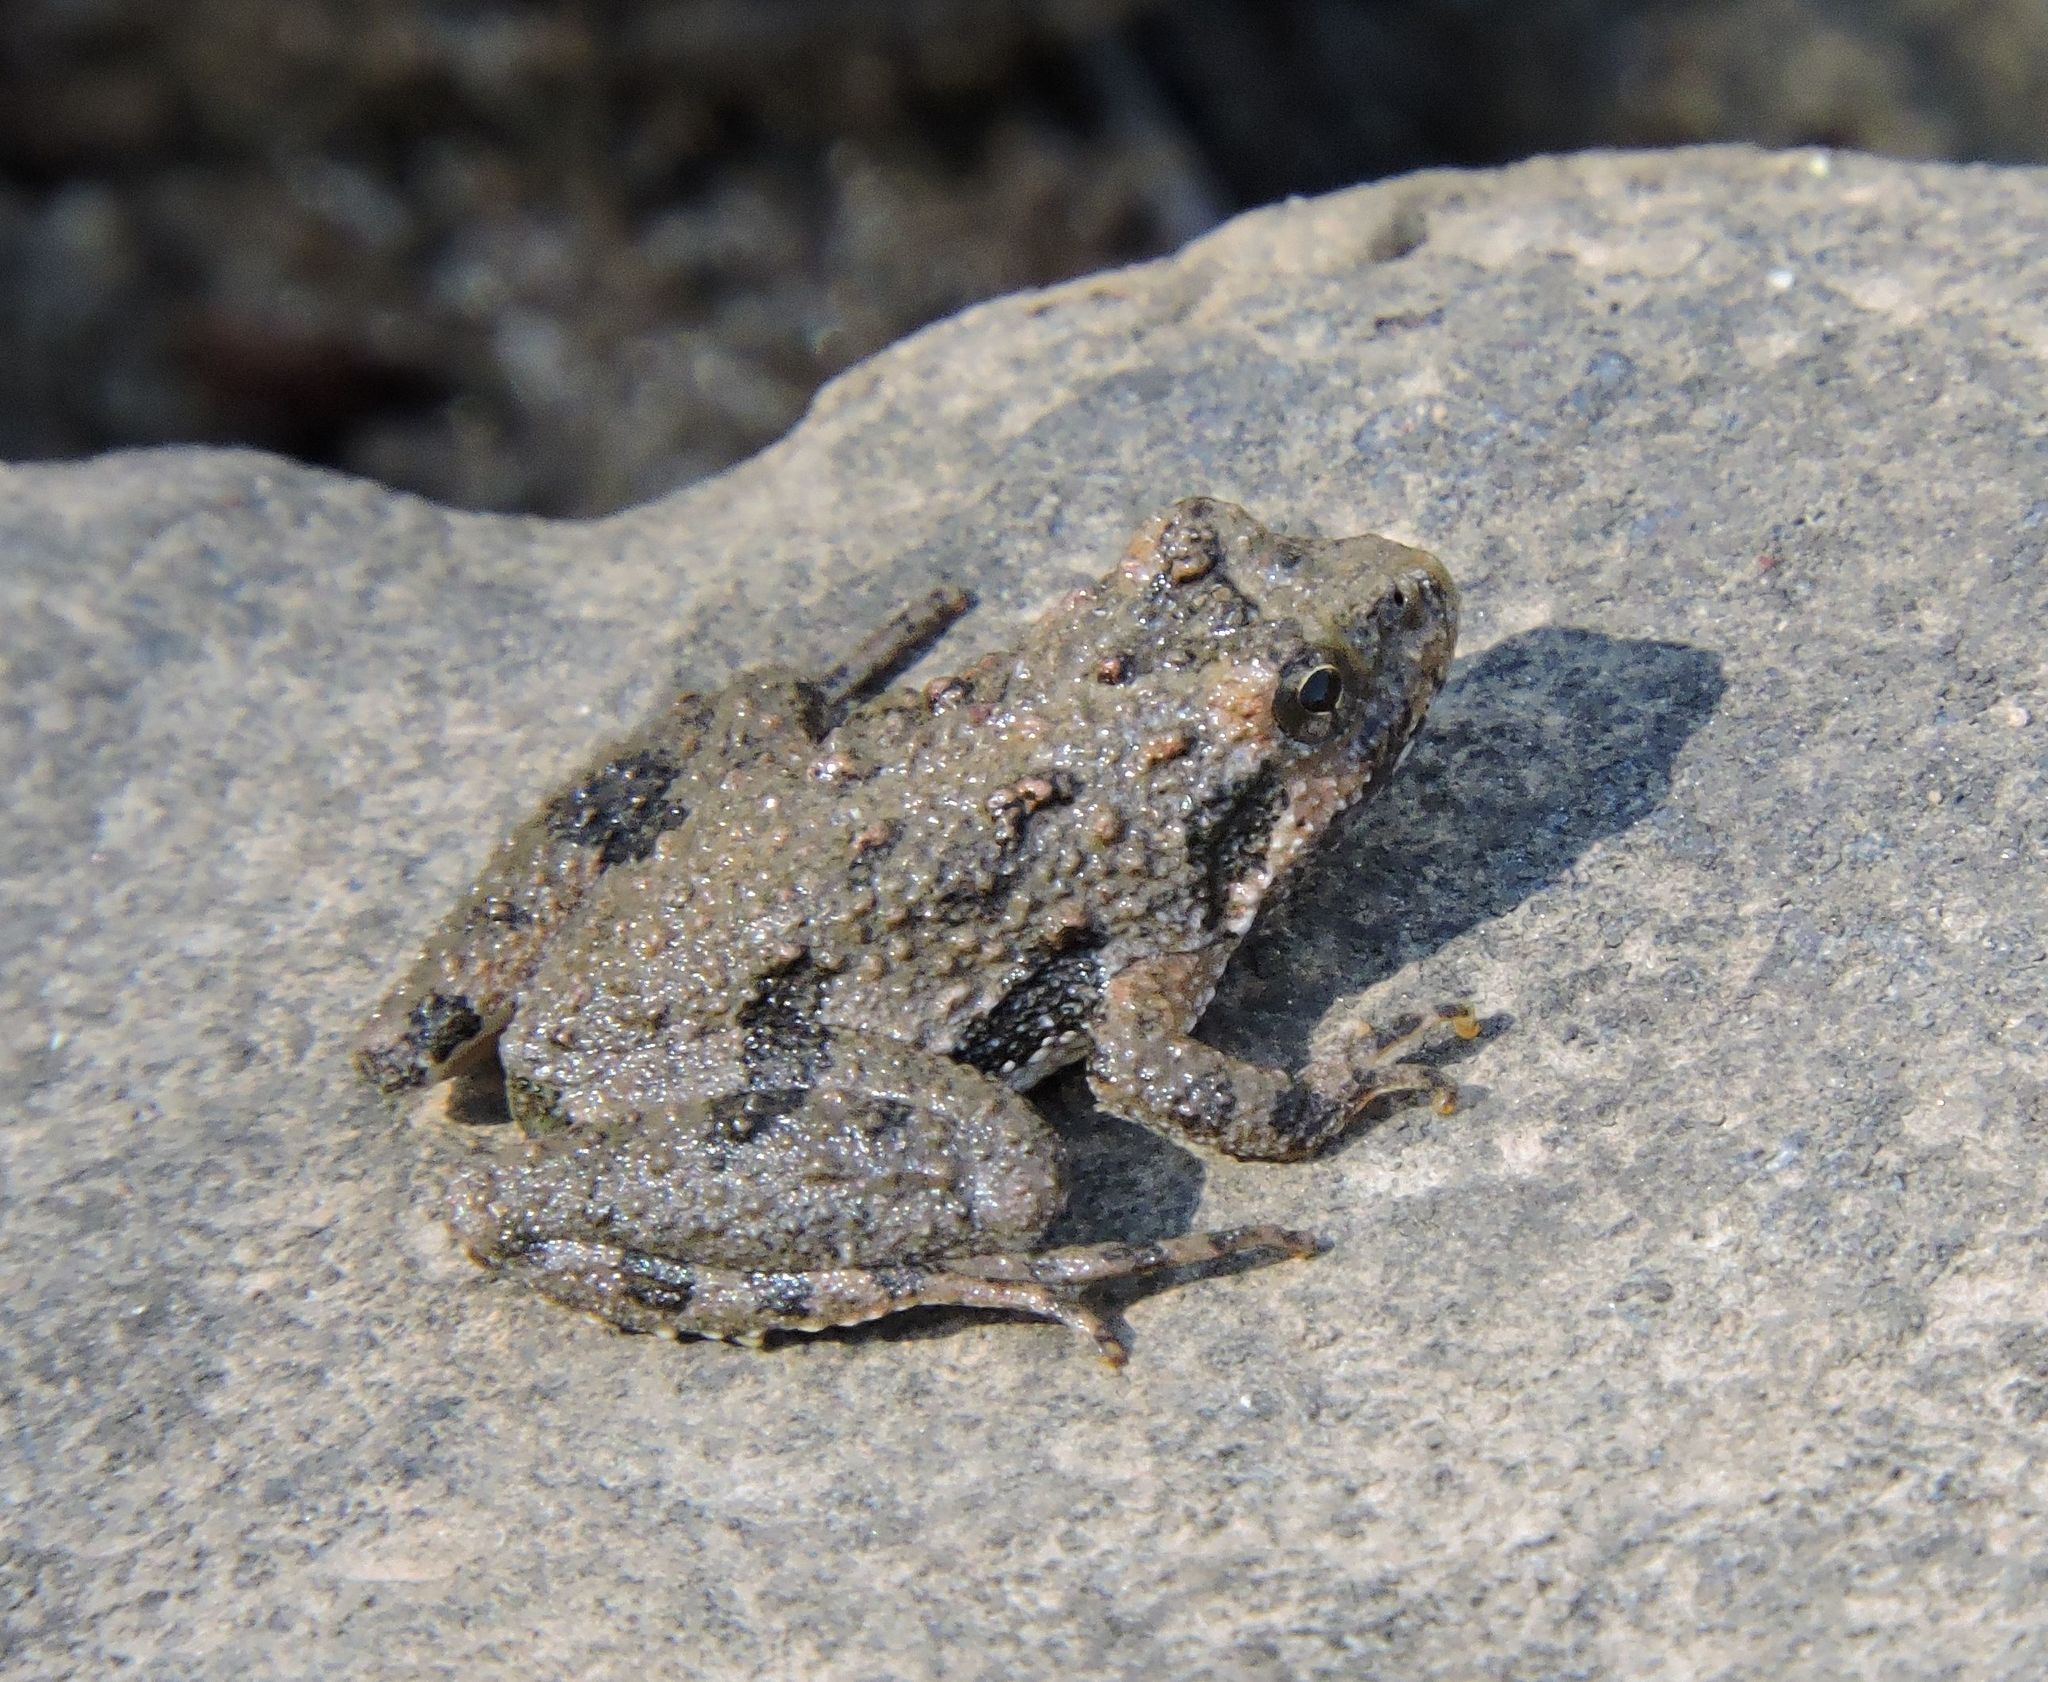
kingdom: Animalia
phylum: Chordata
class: Amphibia
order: Anura
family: Hylidae
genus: Acris
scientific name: Acris crepitans
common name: Northern cricket frog
